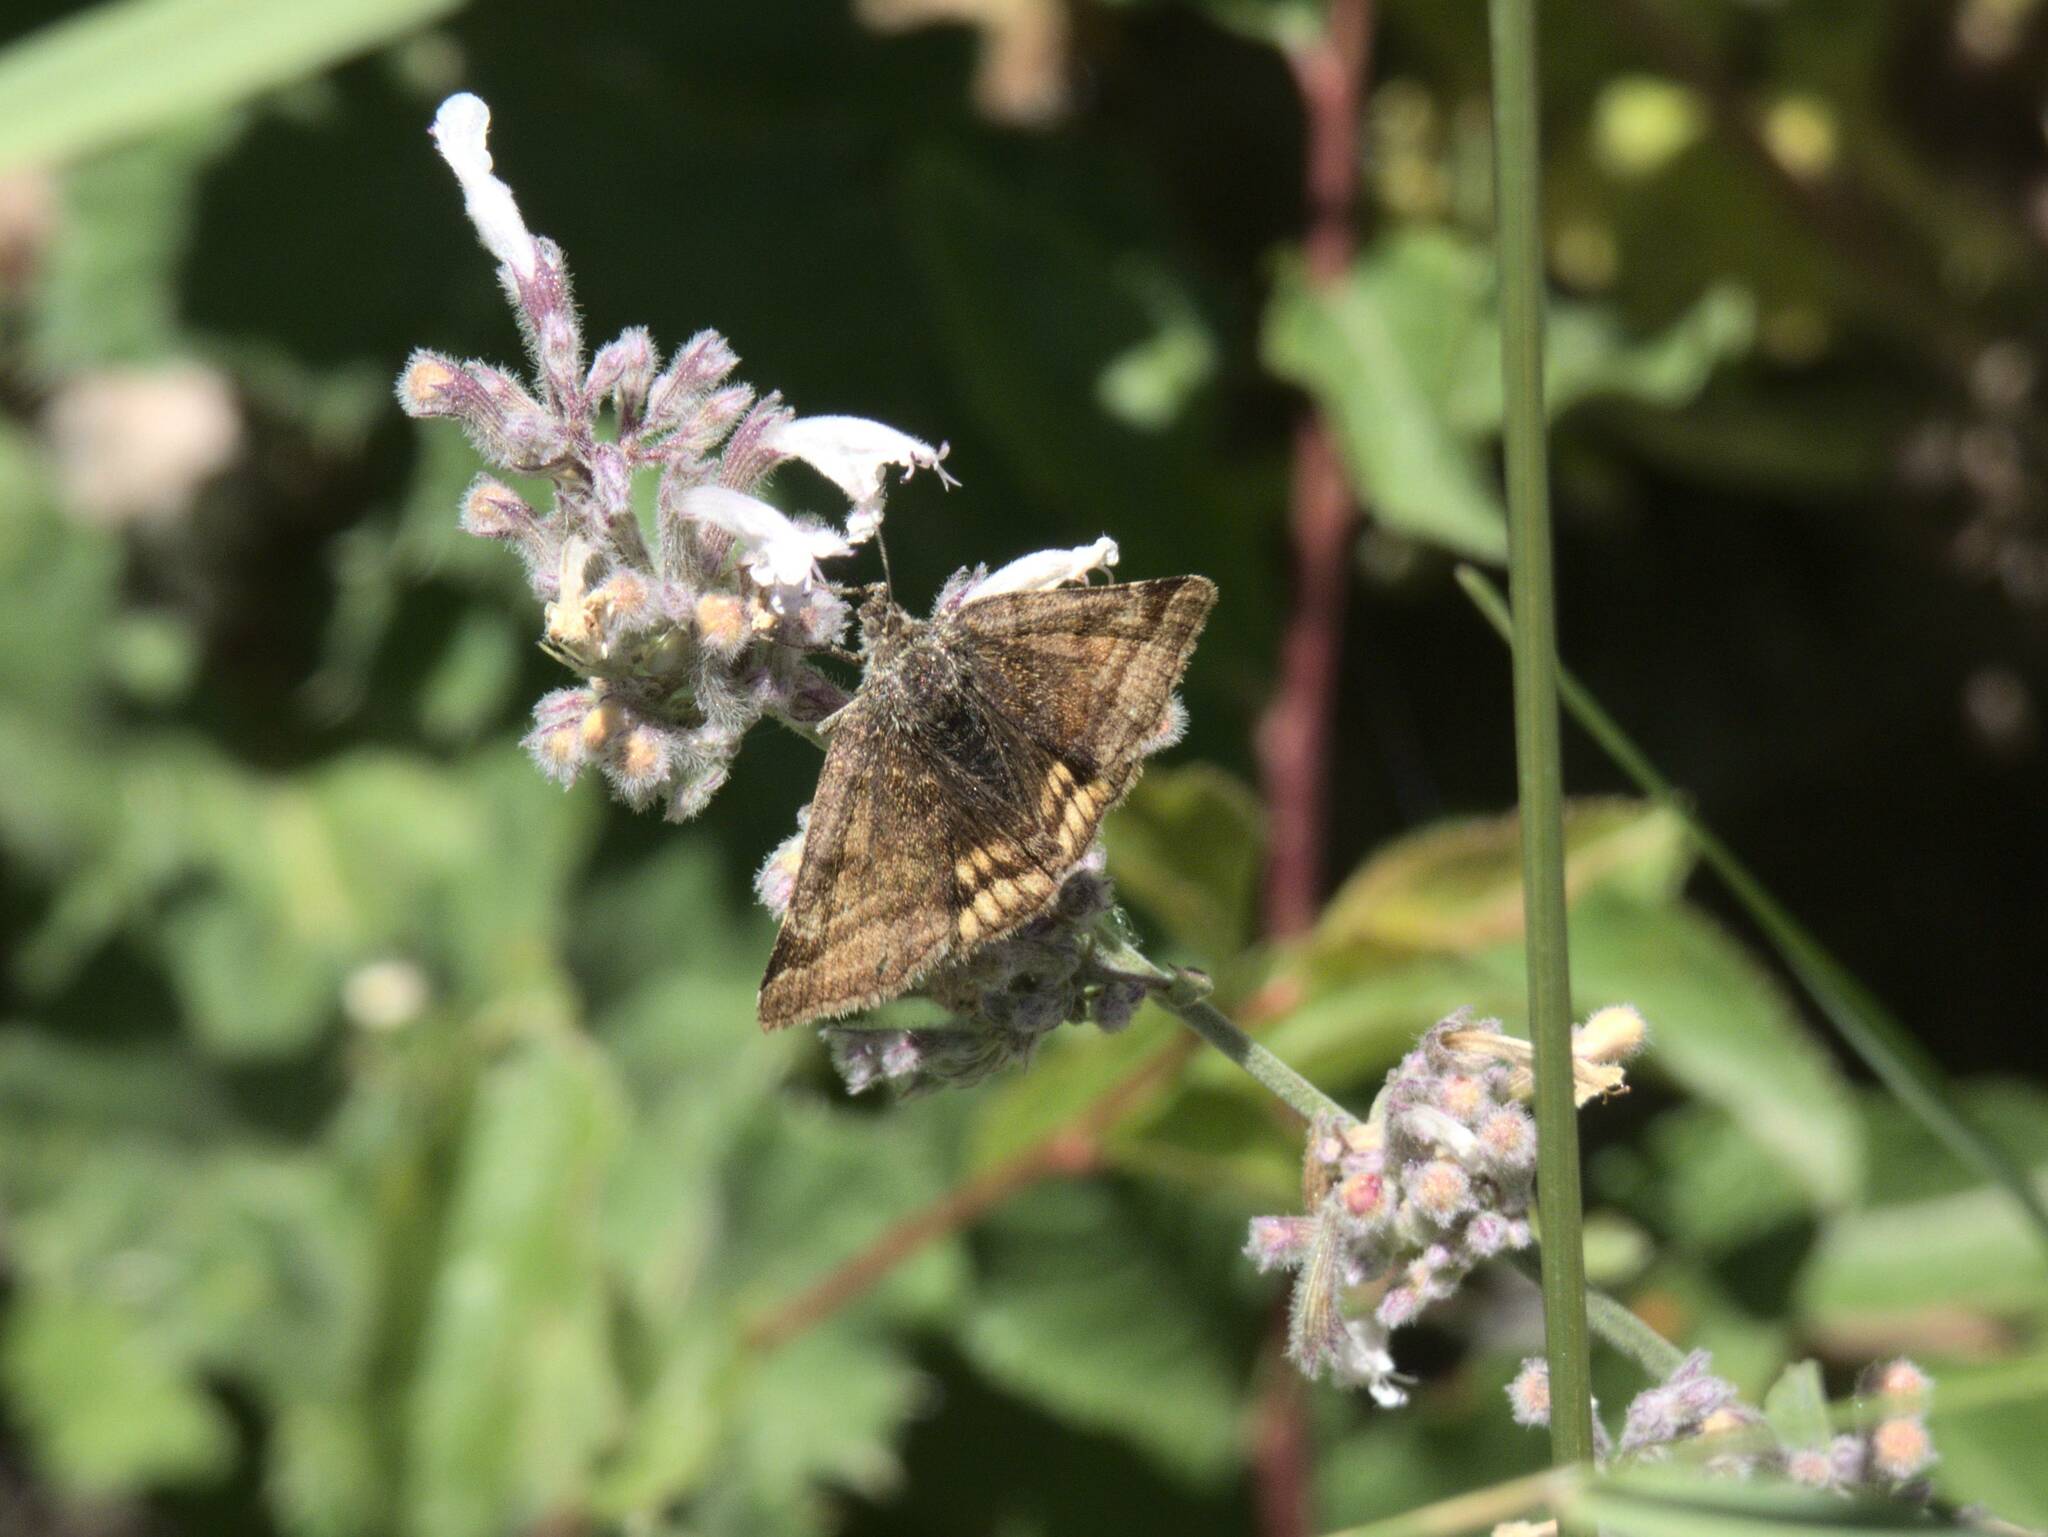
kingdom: Animalia
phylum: Arthropoda
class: Insecta
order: Lepidoptera
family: Erebidae
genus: Euclidia
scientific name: Euclidia glyphica
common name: Burnet companion
